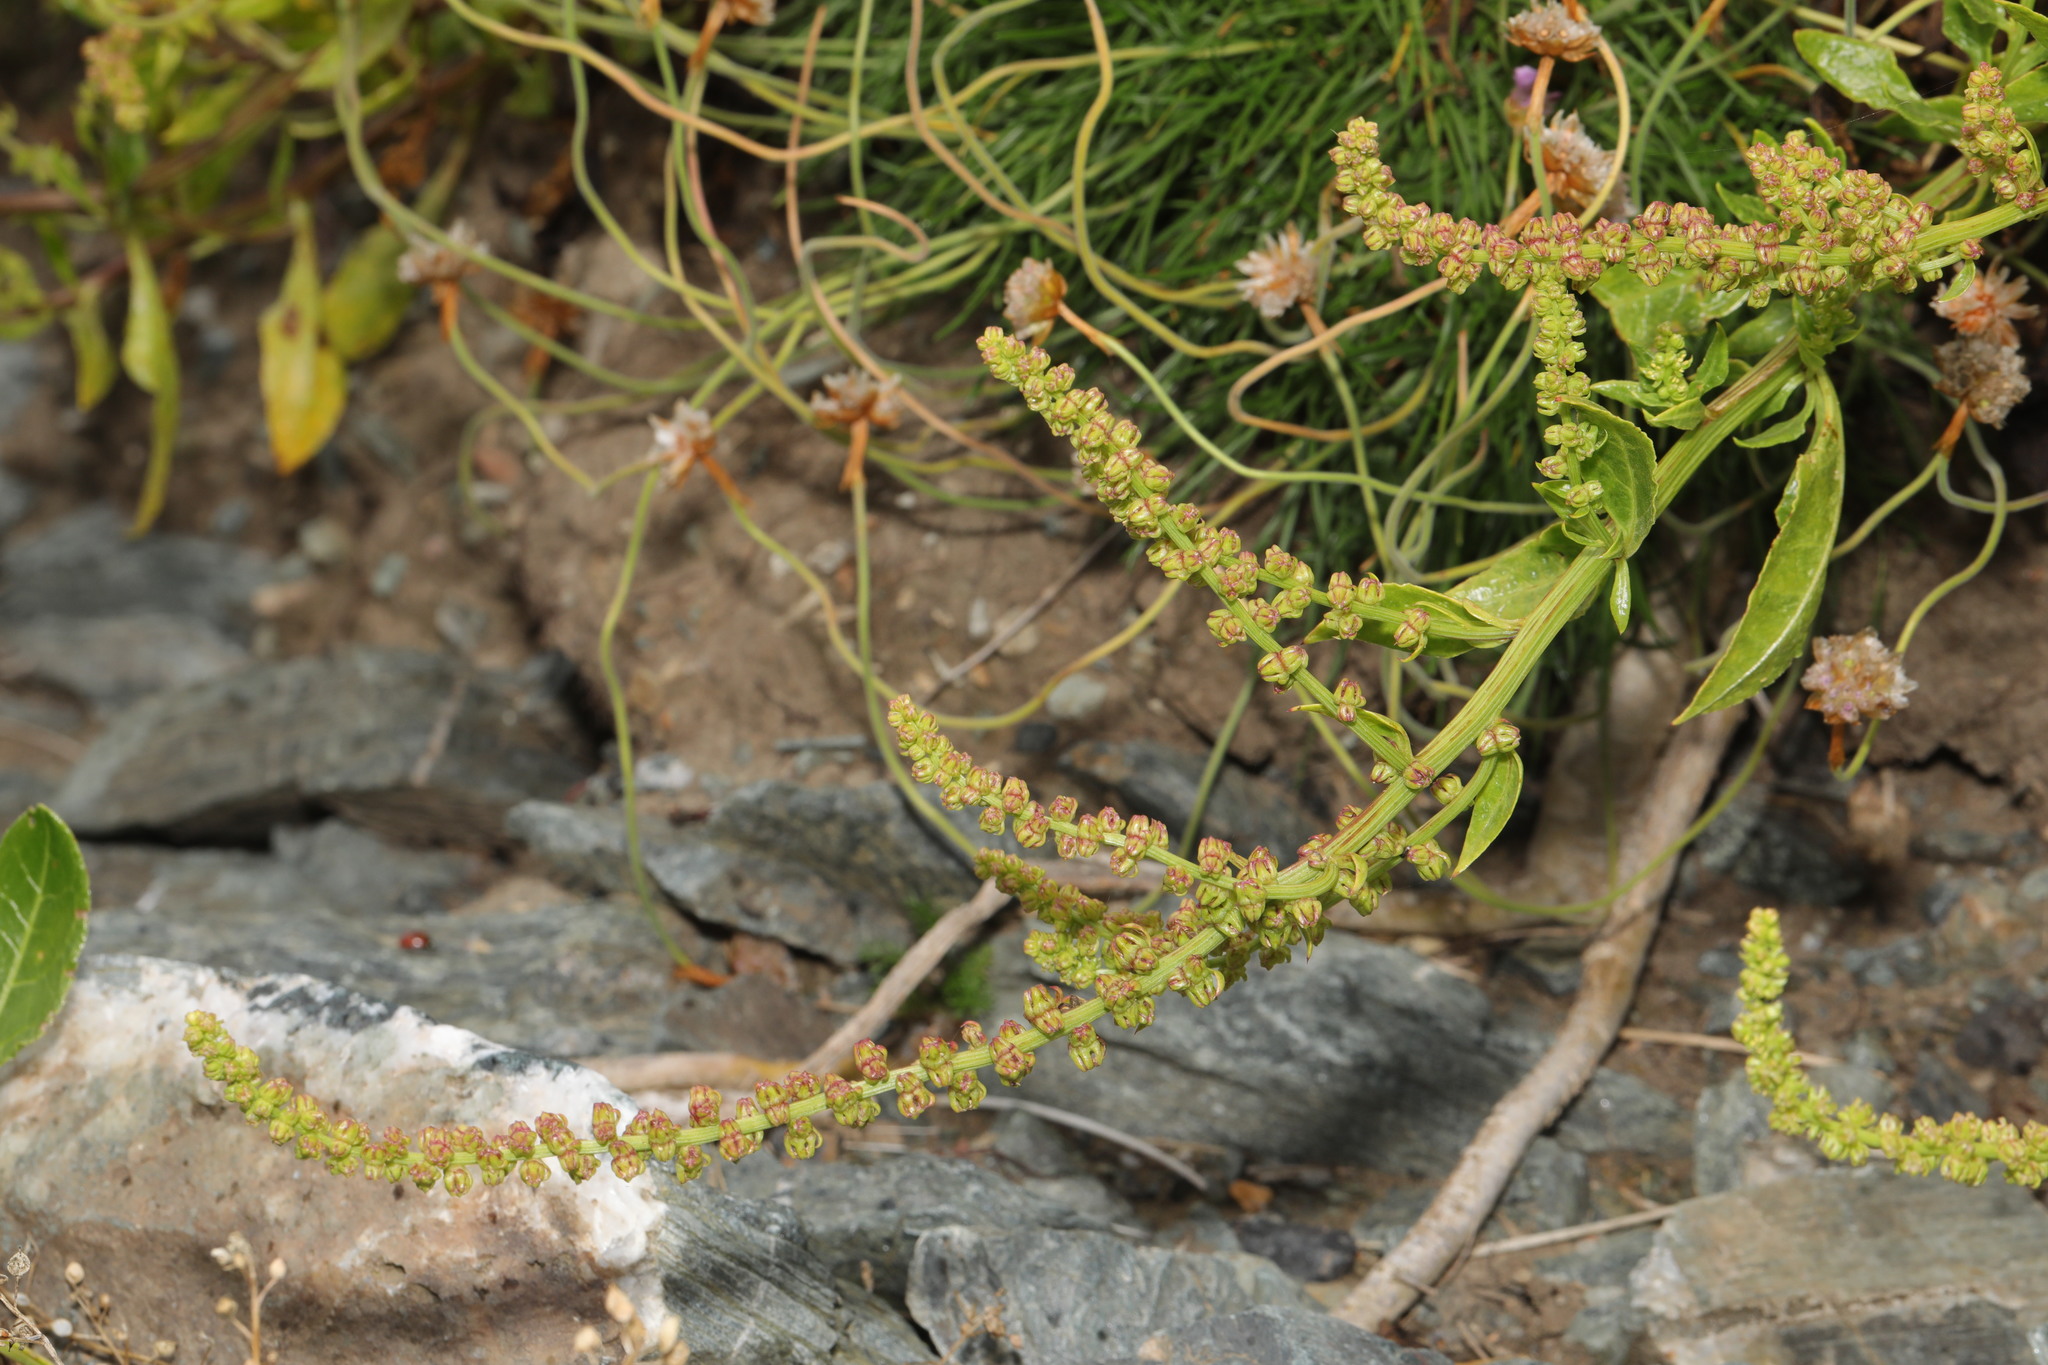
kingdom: Plantae
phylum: Tracheophyta
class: Magnoliopsida
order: Caryophyllales
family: Amaranthaceae
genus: Beta
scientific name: Beta vulgaris
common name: Beet
